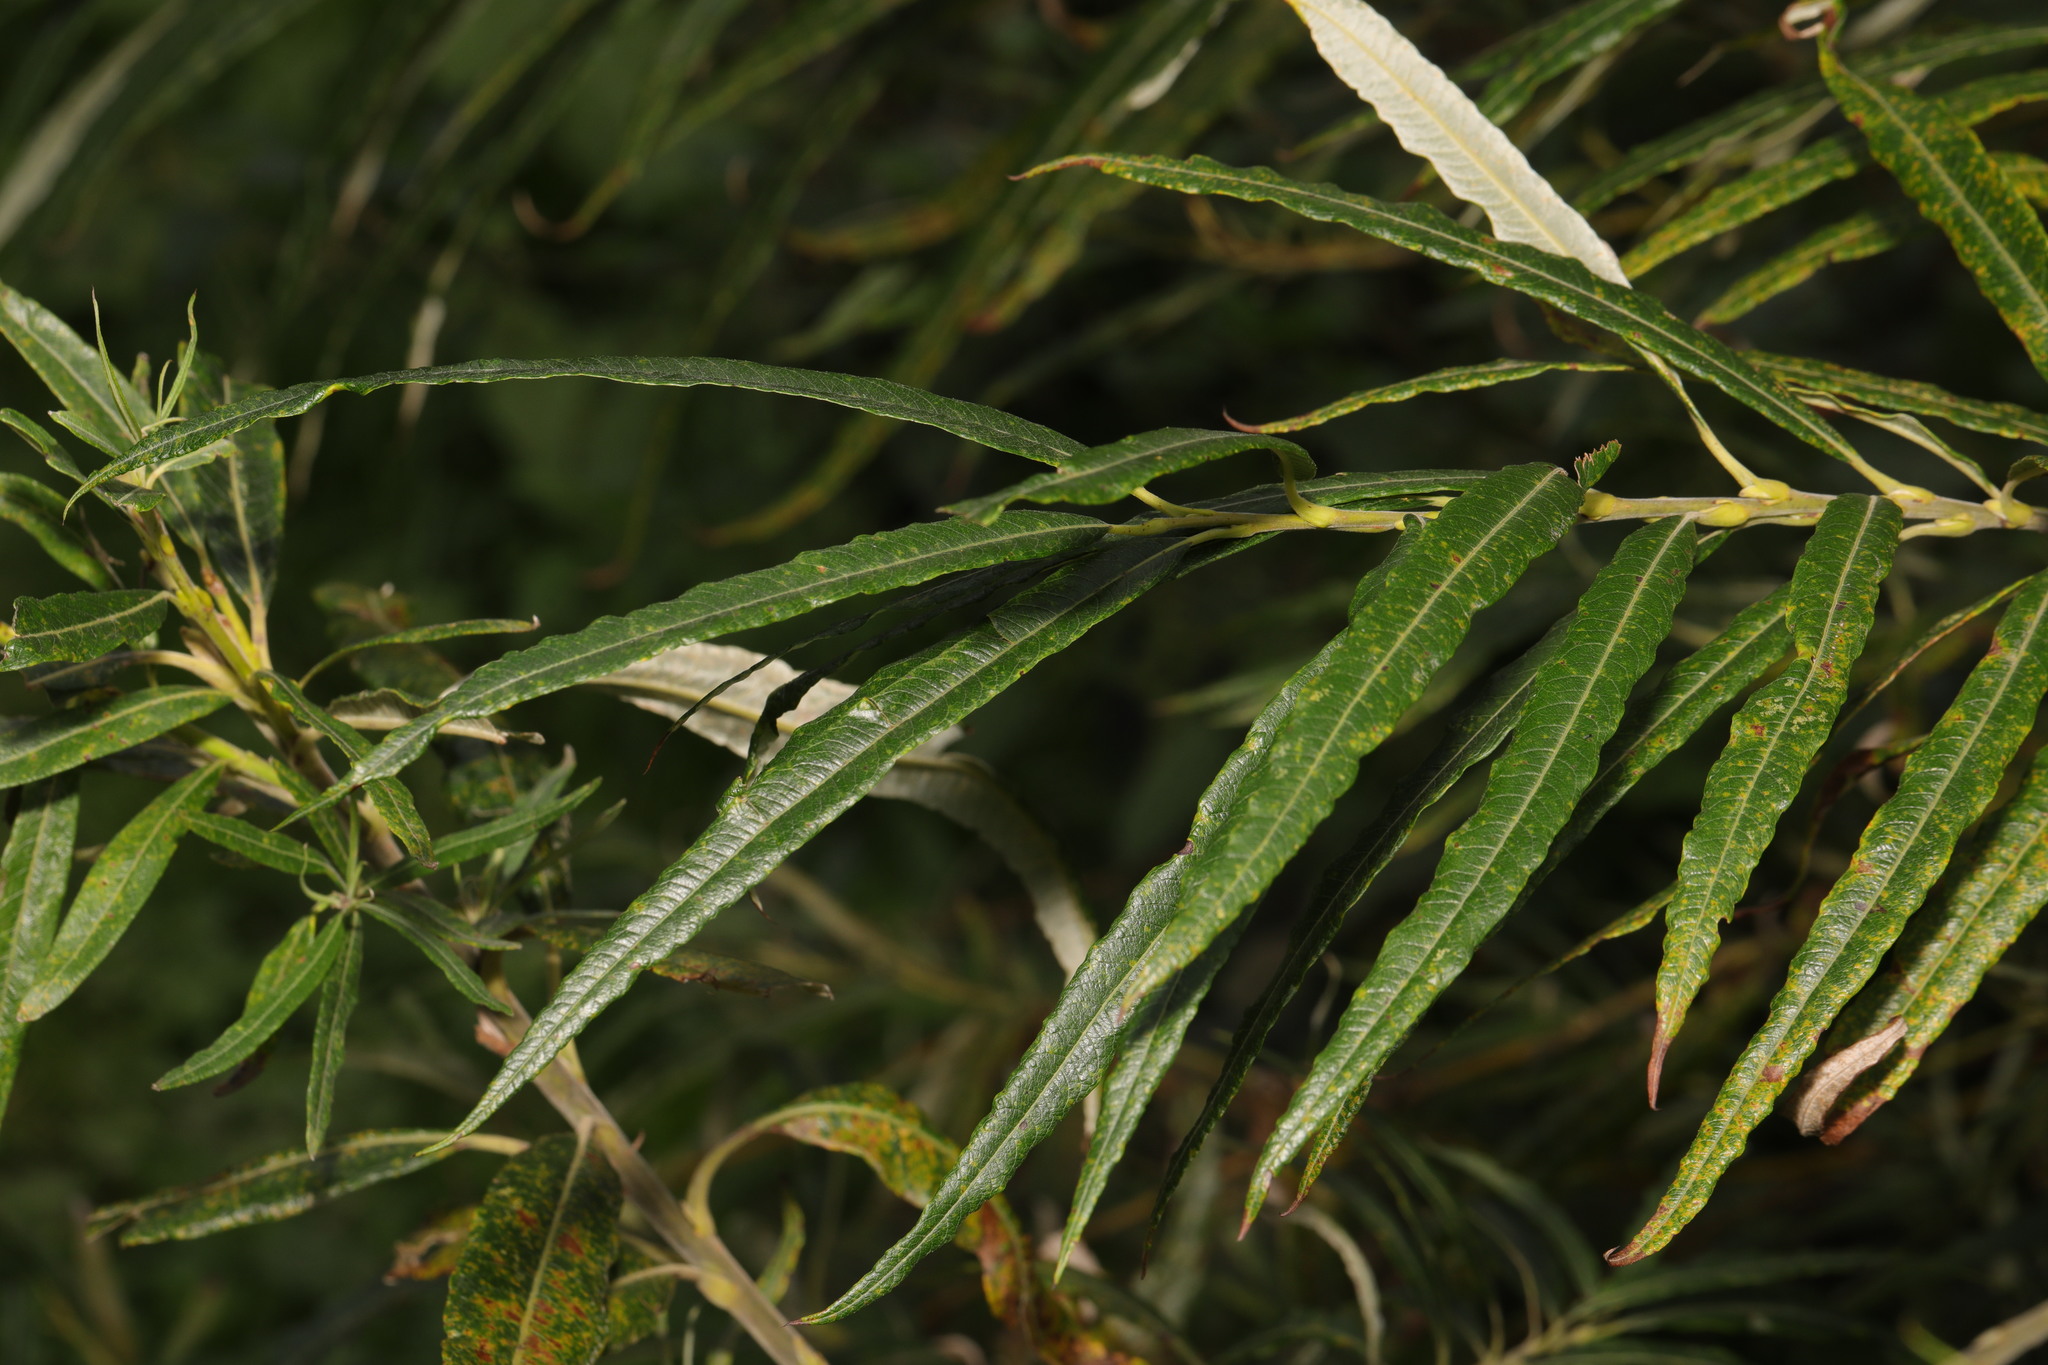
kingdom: Plantae
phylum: Tracheophyta
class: Magnoliopsida
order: Malpighiales
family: Salicaceae
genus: Salix
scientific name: Salix viminalis
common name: Osier
